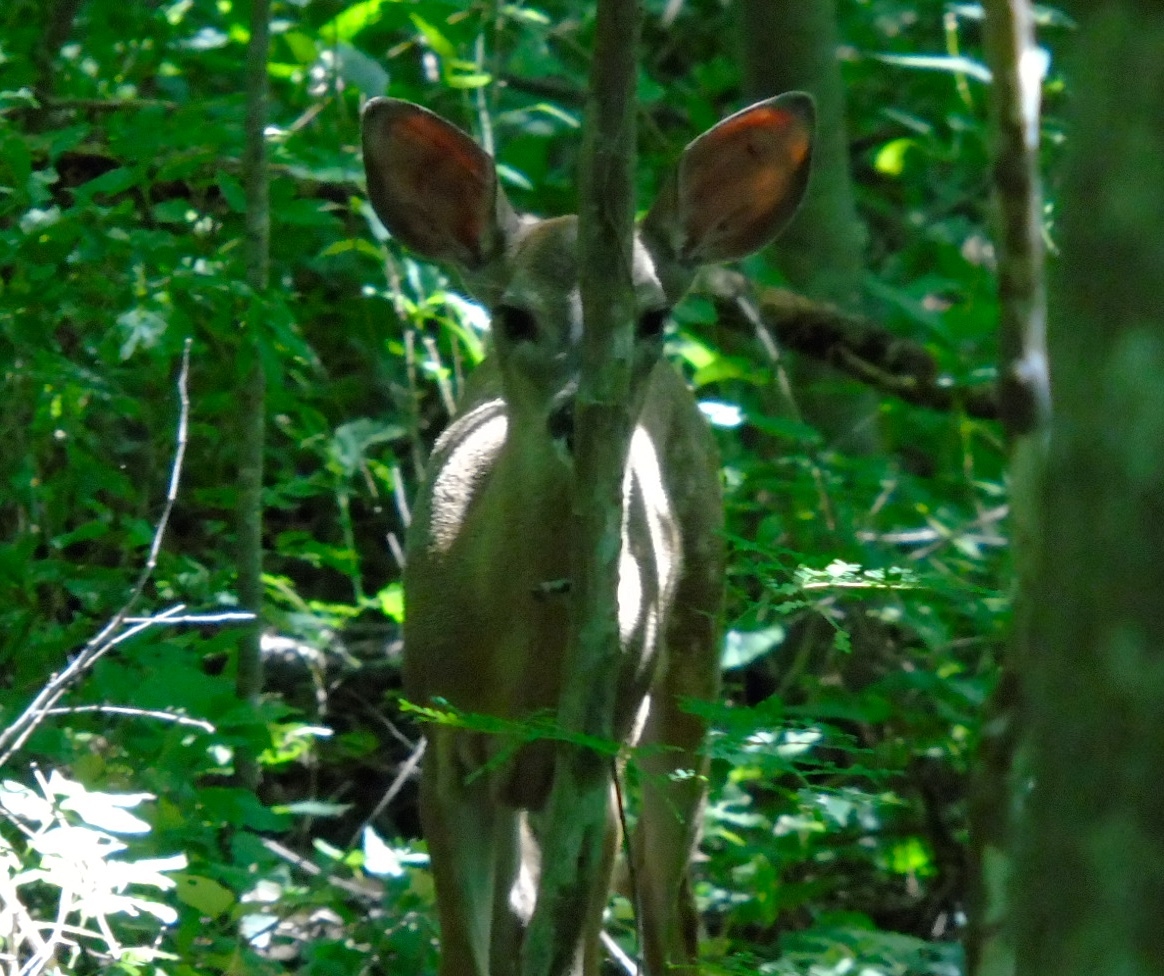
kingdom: Animalia
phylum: Chordata
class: Mammalia
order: Artiodactyla
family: Cervidae
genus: Odocoileus
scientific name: Odocoileus virginianus
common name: White-tailed deer
